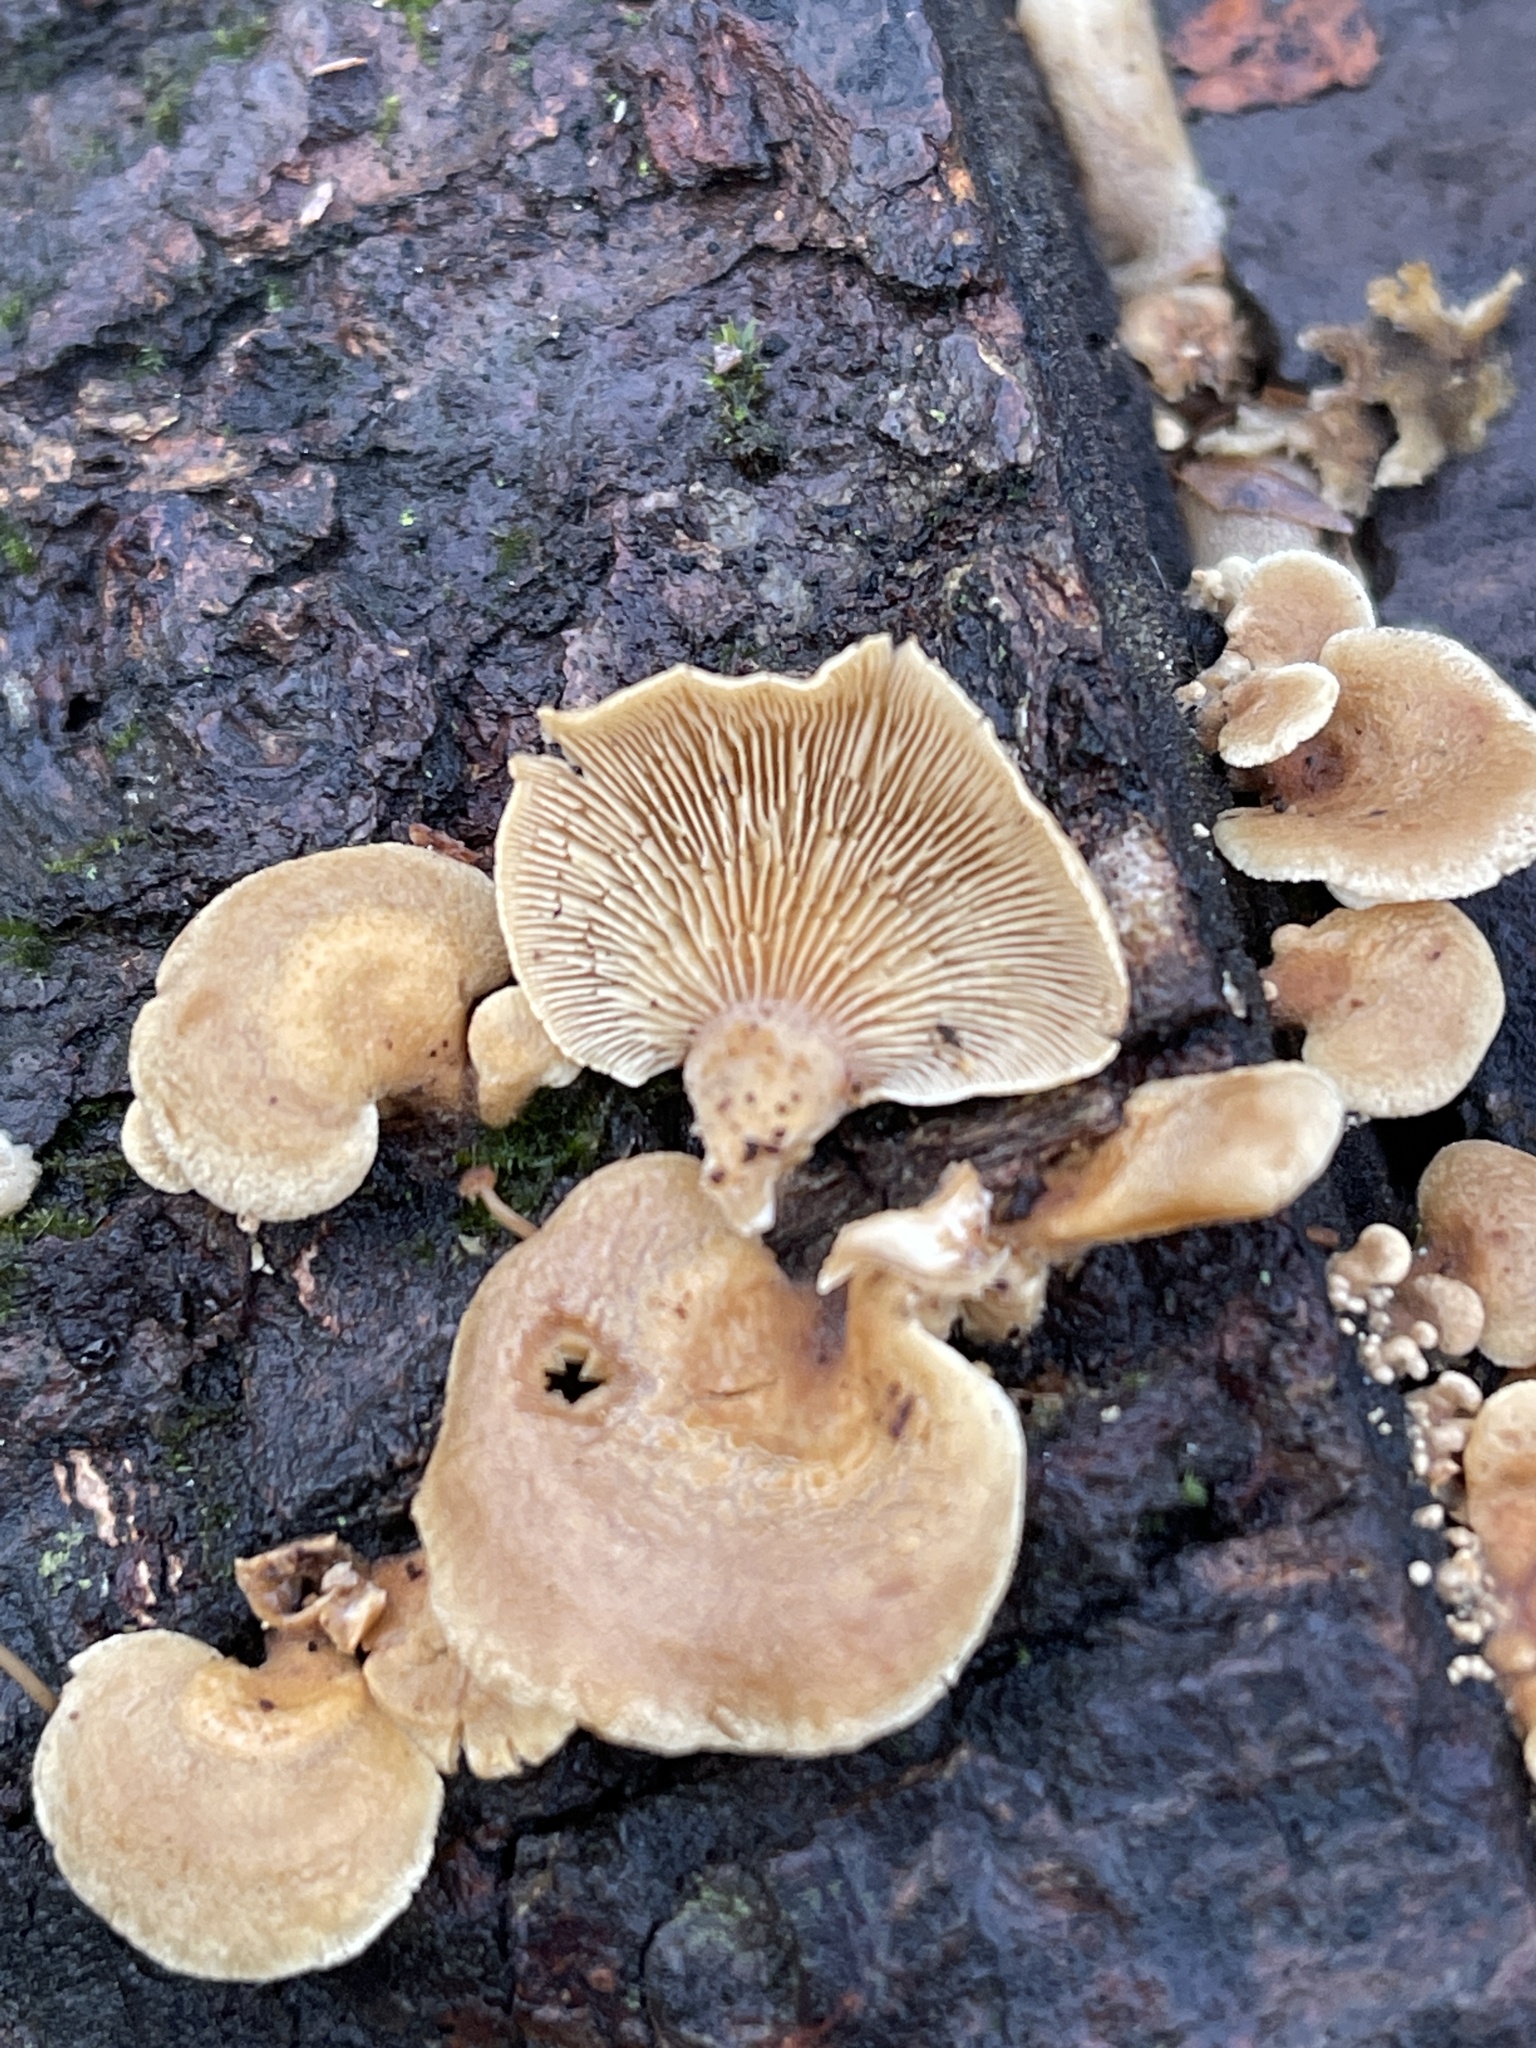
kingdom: Fungi
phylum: Basidiomycota
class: Agaricomycetes
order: Agaricales
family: Mycenaceae
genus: Panellus
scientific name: Panellus stipticus
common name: Bitter oysterling
